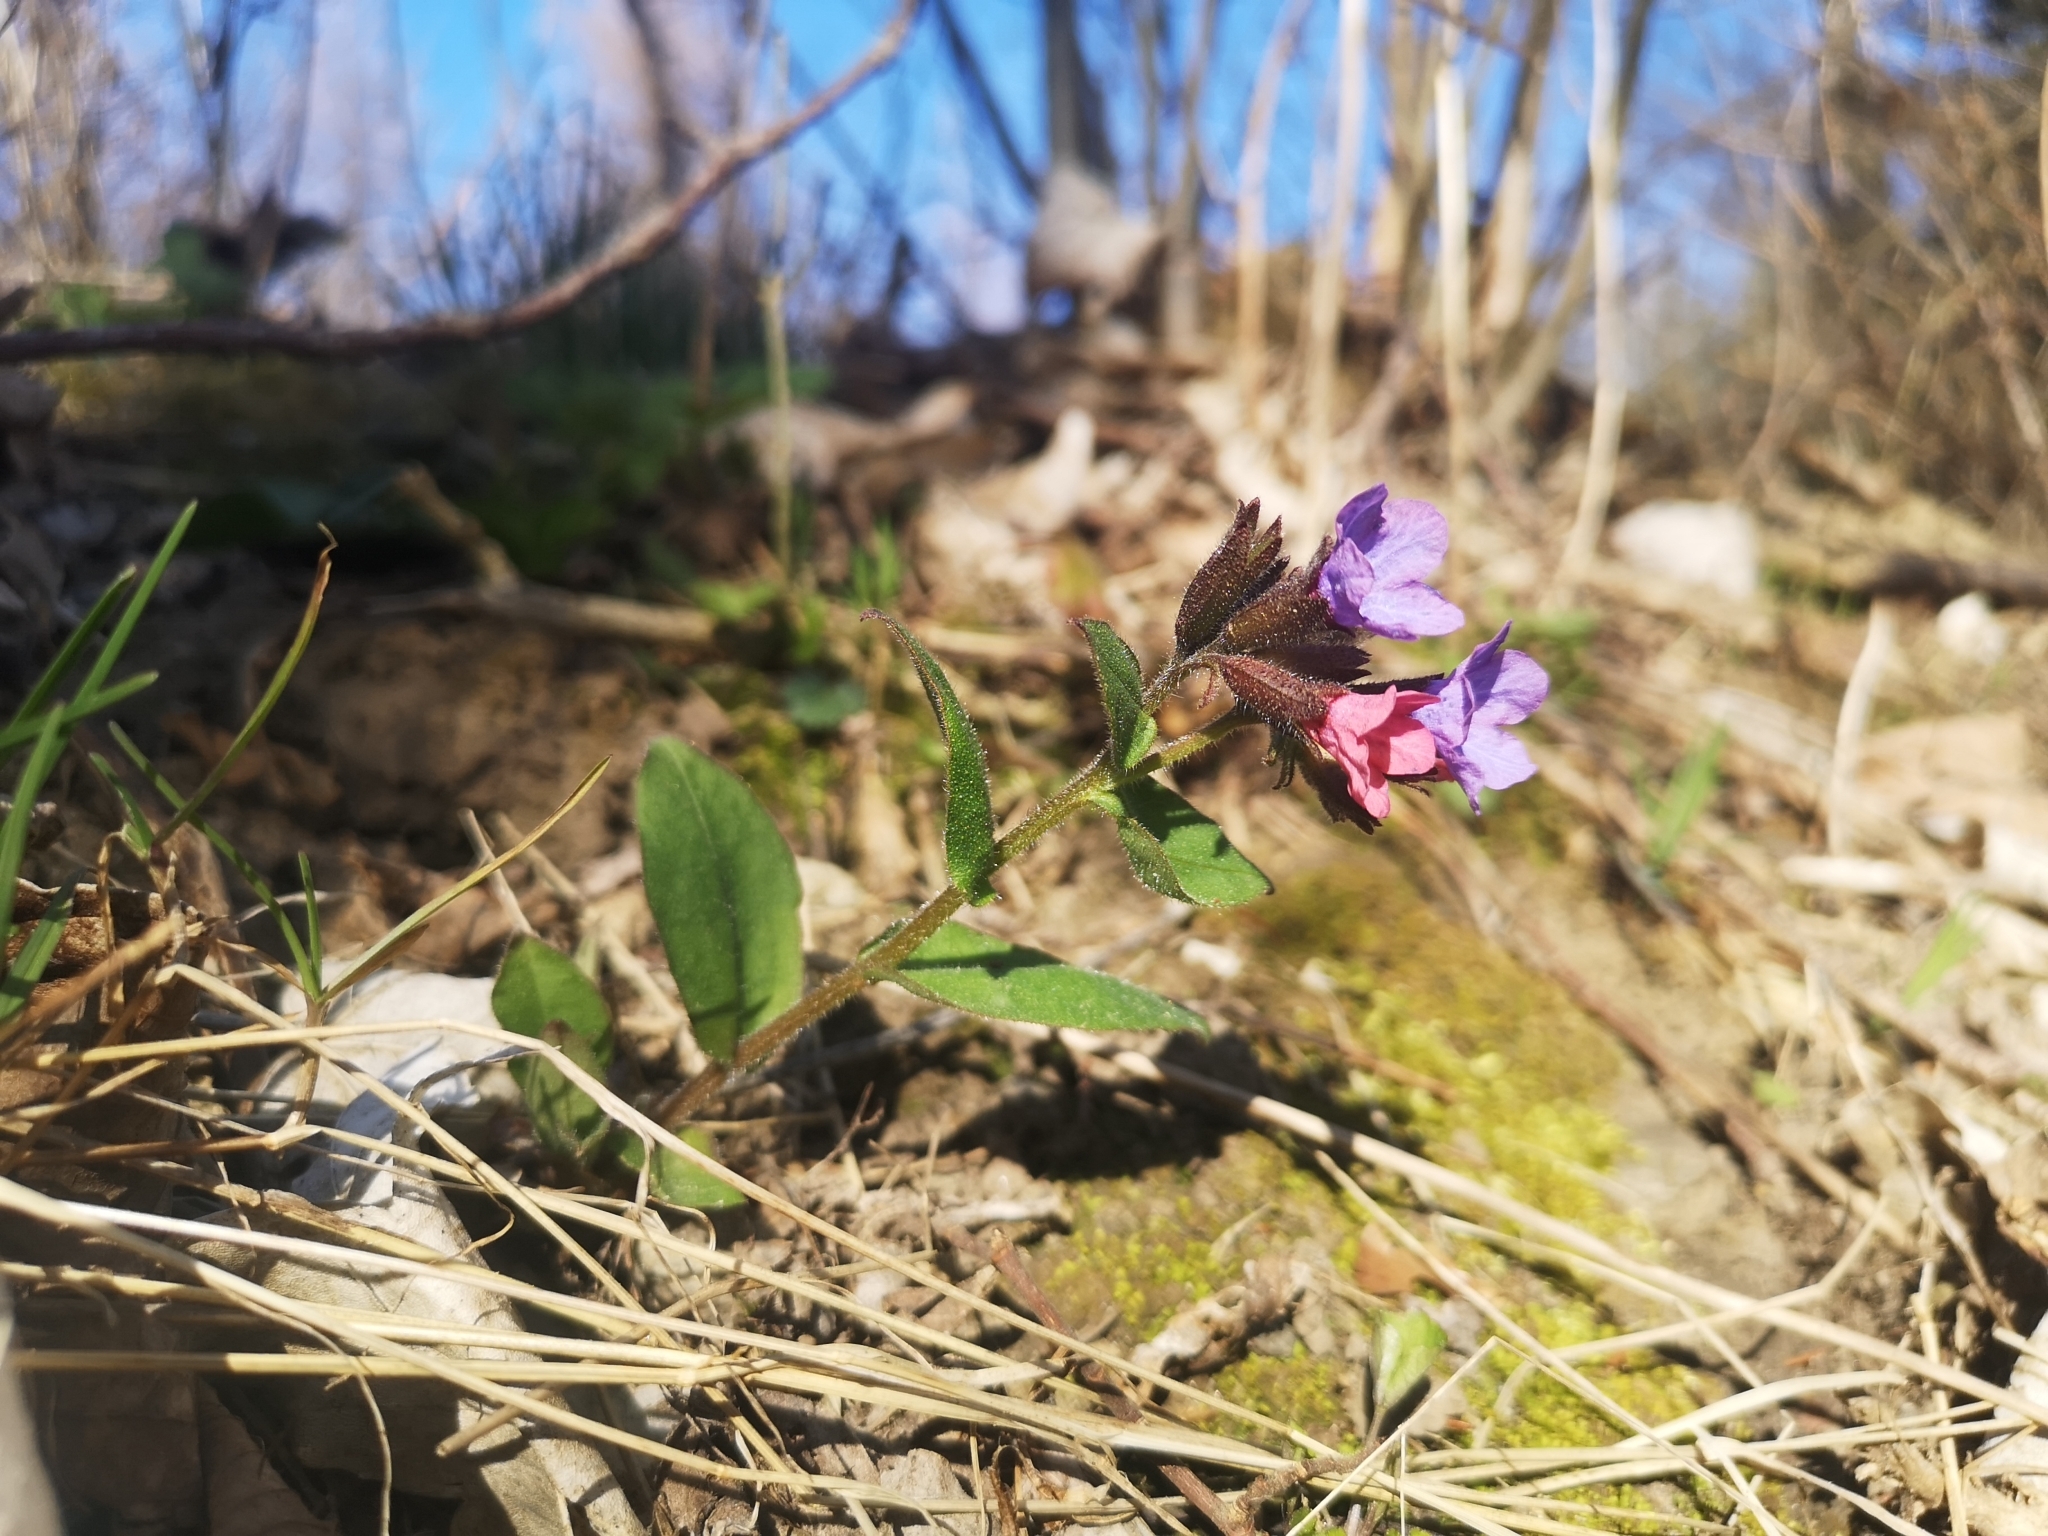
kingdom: Plantae
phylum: Tracheophyta
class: Magnoliopsida
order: Boraginales
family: Boraginaceae
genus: Pulmonaria
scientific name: Pulmonaria obscura
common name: Suffolk lungwort
